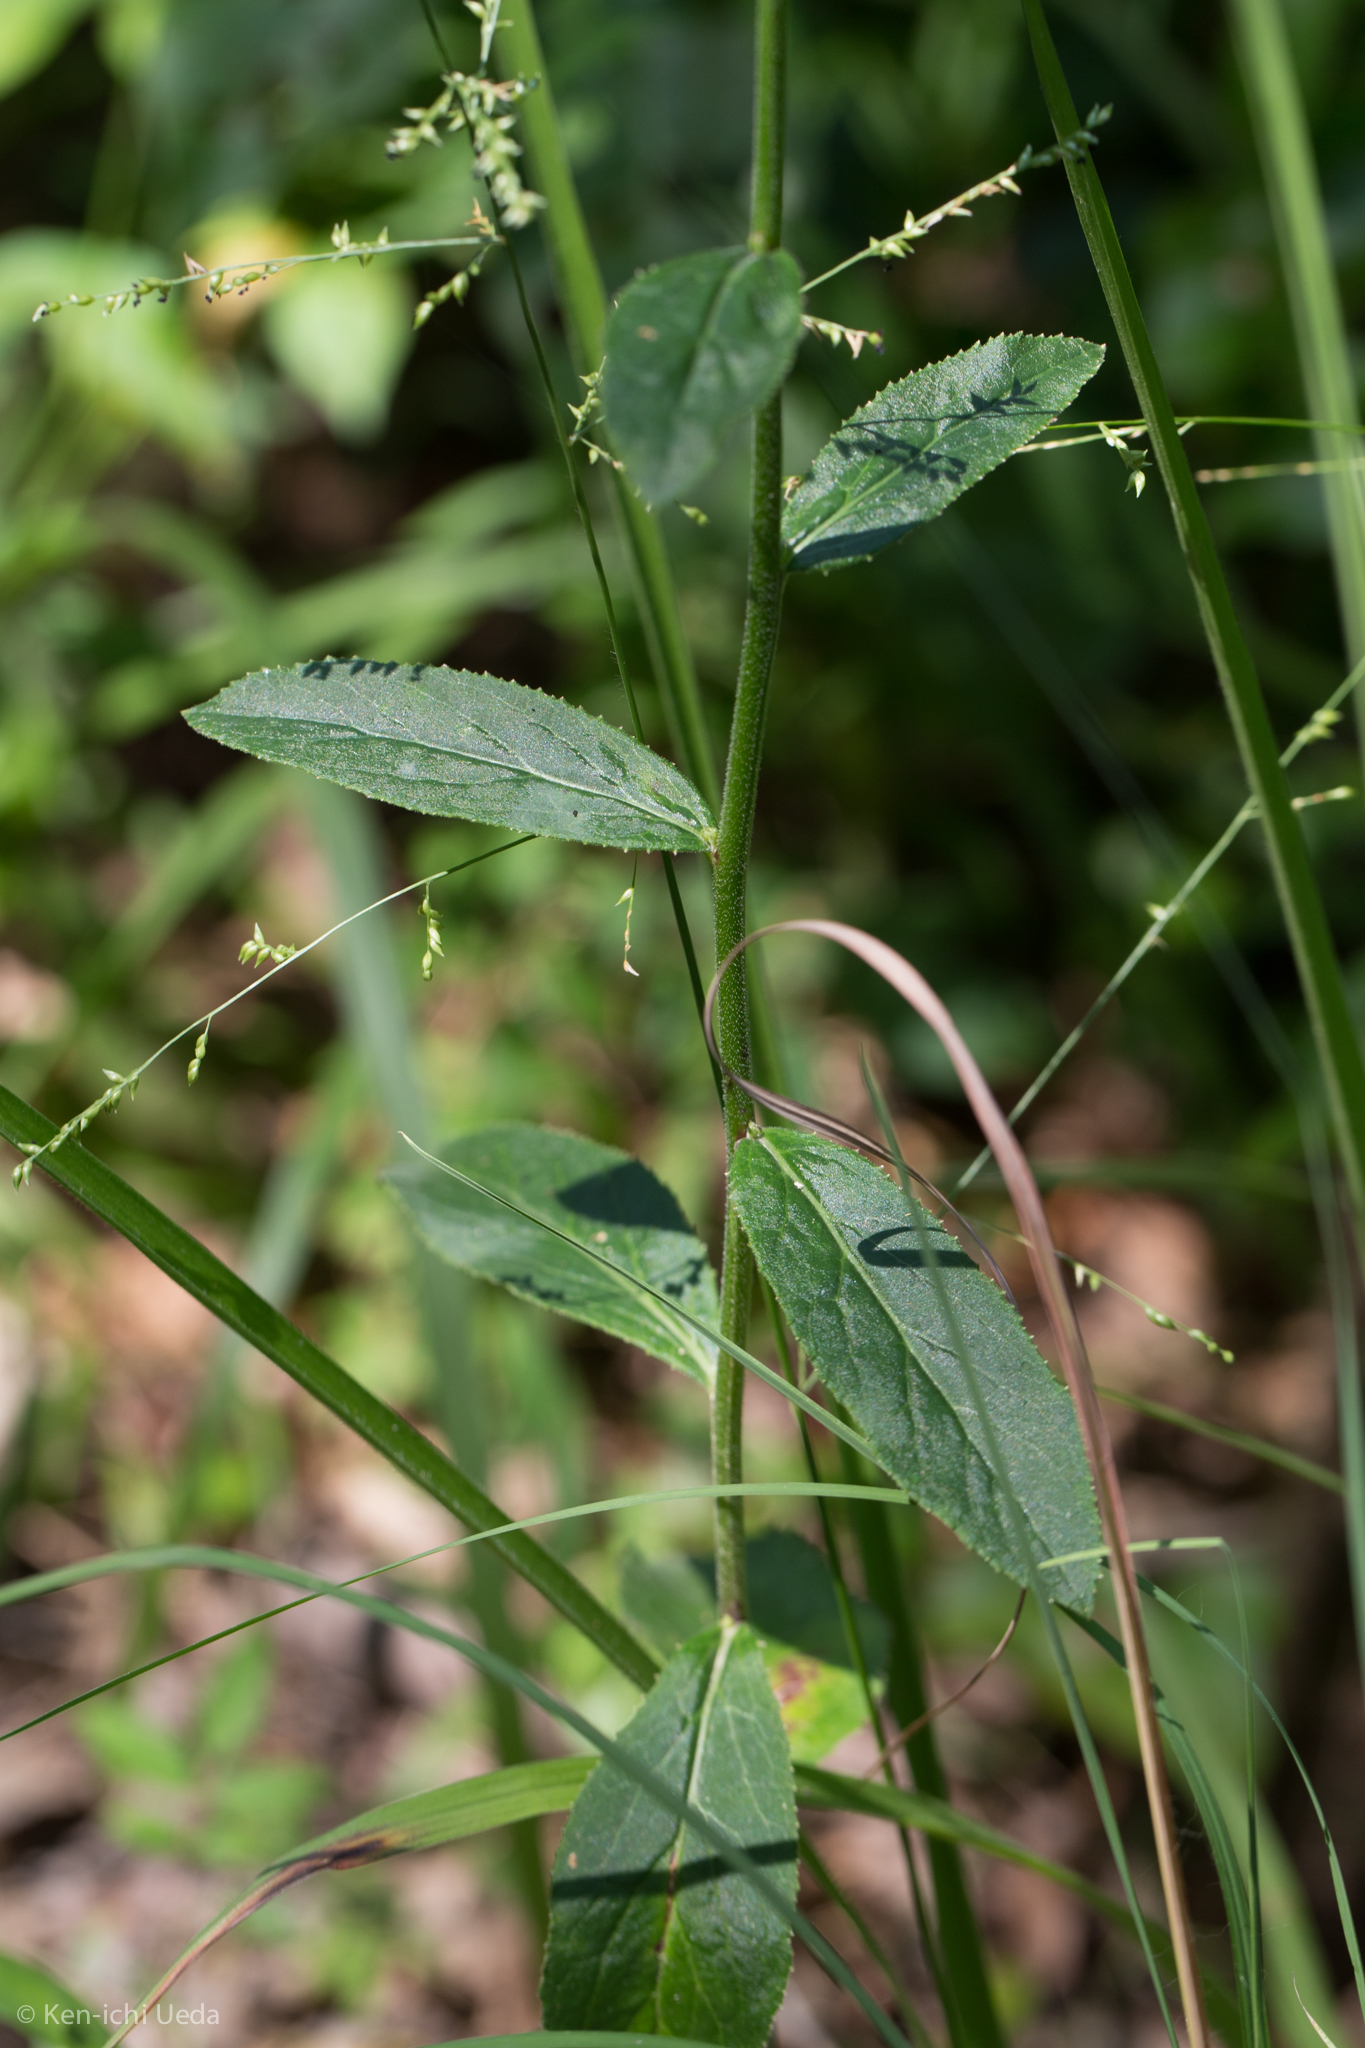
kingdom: Plantae
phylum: Tracheophyta
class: Magnoliopsida
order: Asterales
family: Campanulaceae
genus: Lobelia
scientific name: Lobelia puberula
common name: Purple dewdrop
